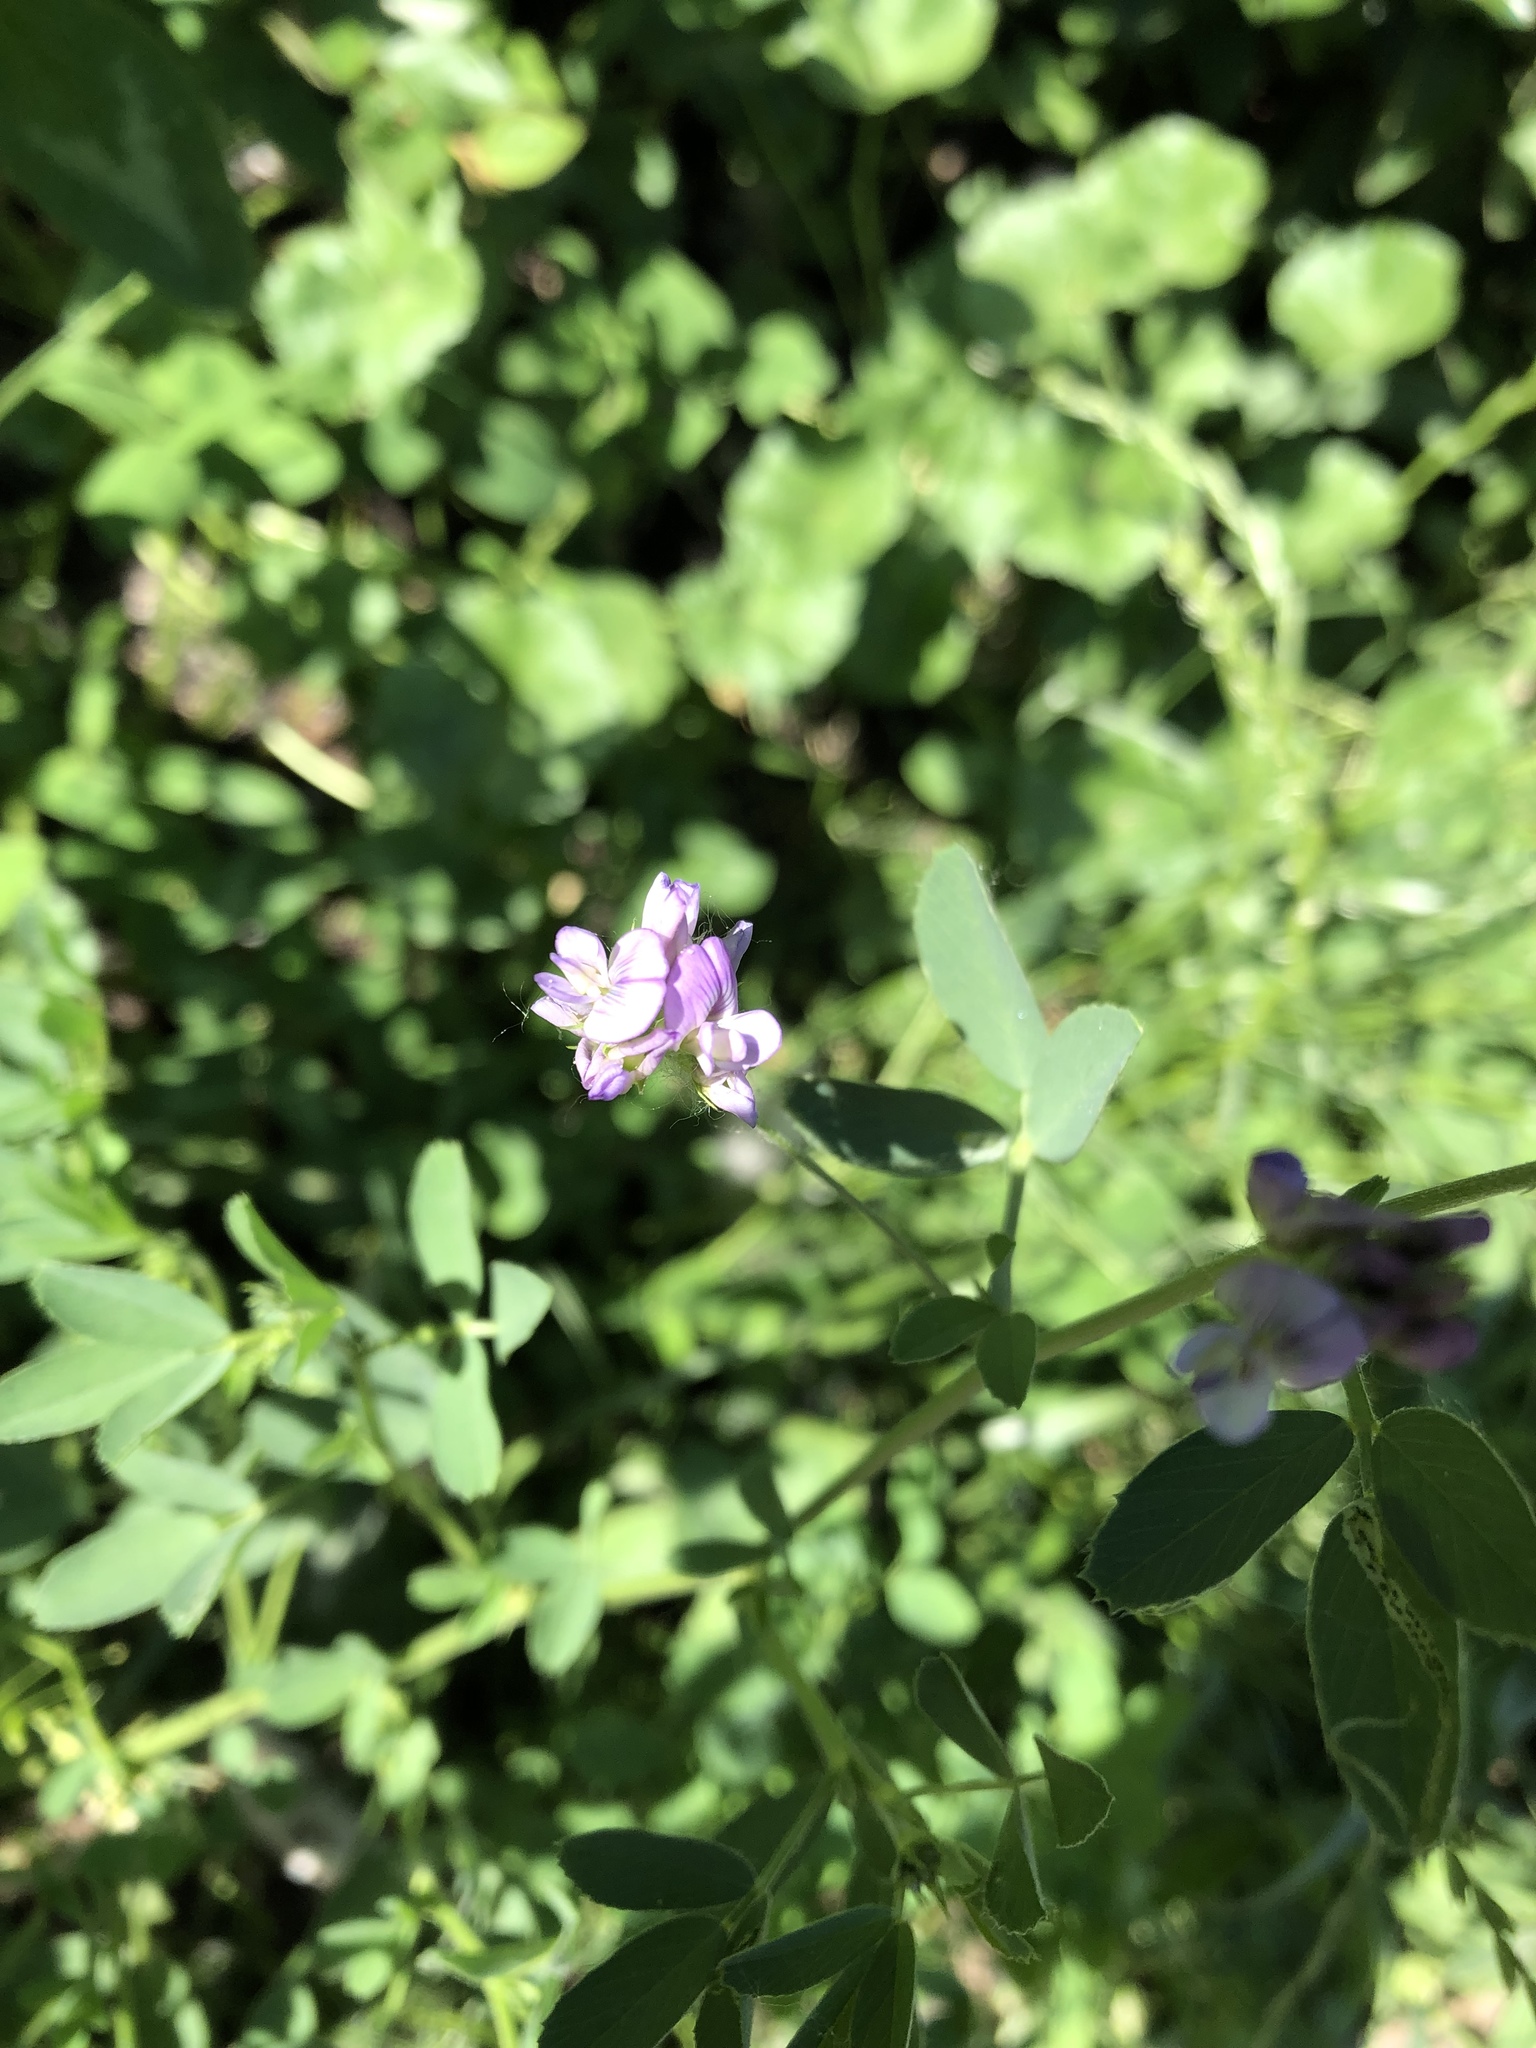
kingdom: Plantae
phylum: Tracheophyta
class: Magnoliopsida
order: Fabales
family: Fabaceae
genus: Medicago
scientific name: Medicago sativa
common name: Alfalfa
